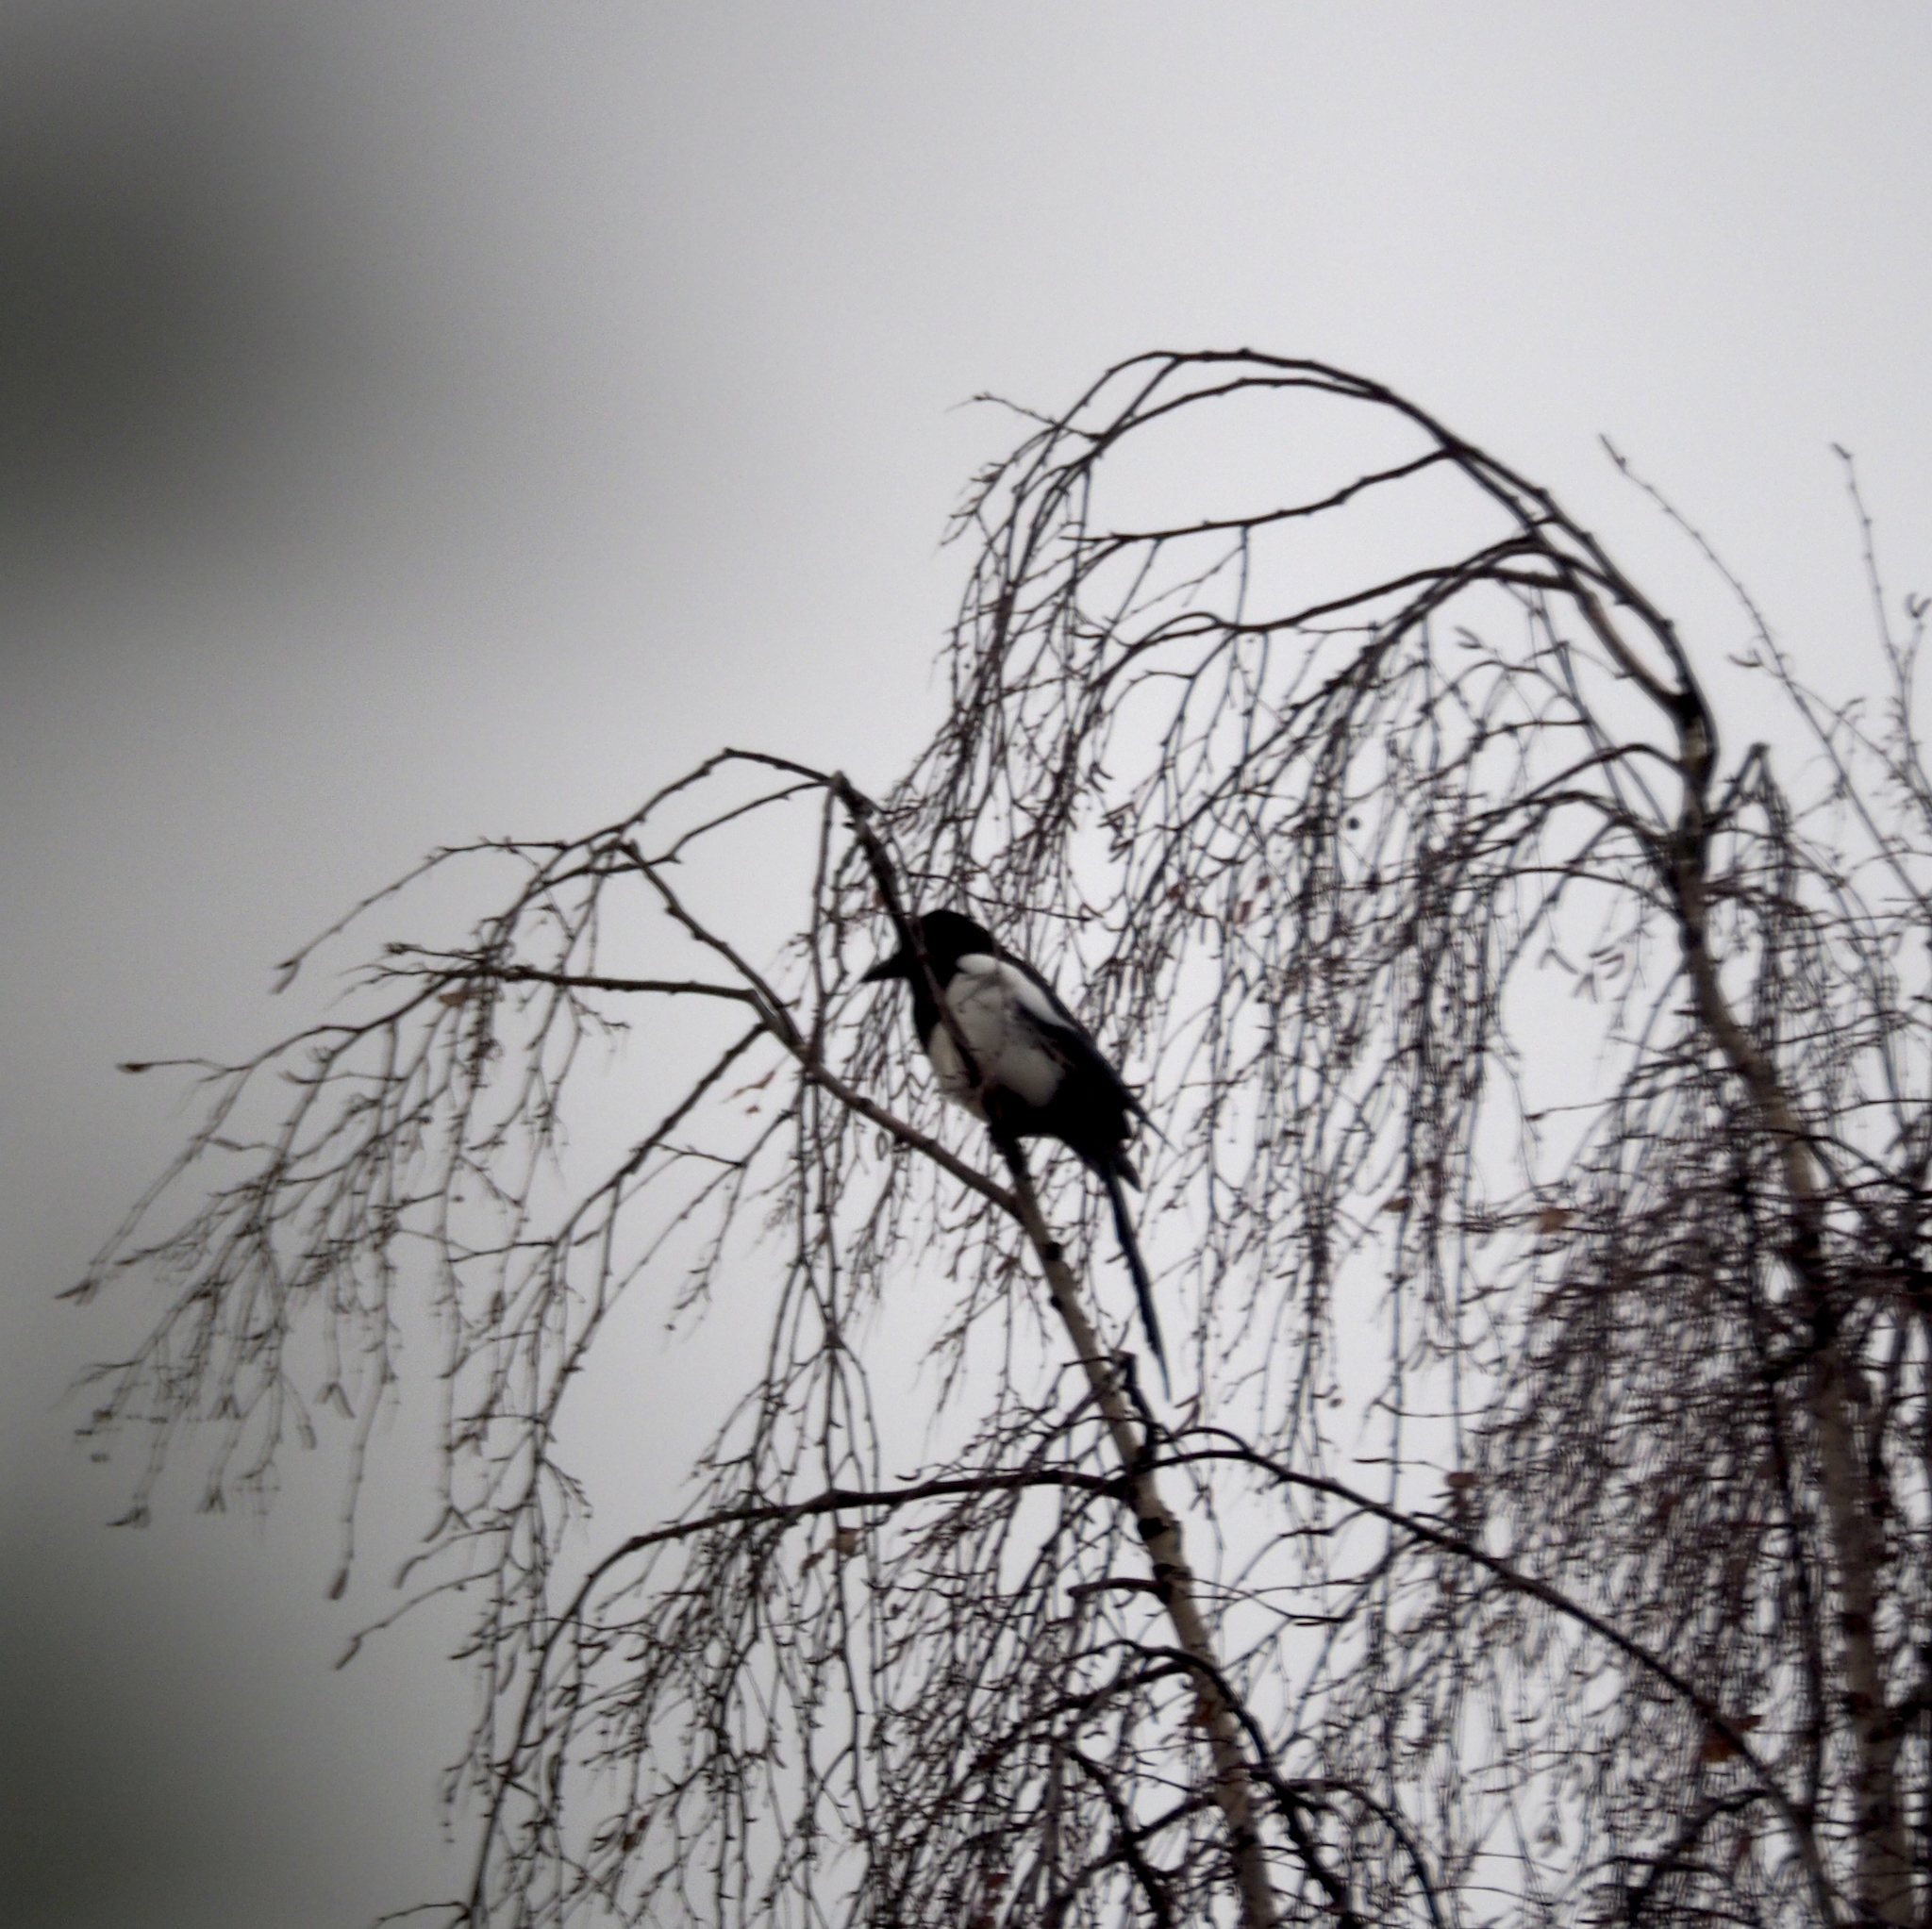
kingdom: Animalia
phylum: Chordata
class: Aves
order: Passeriformes
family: Corvidae
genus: Pica
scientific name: Pica pica
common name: Eurasian magpie
